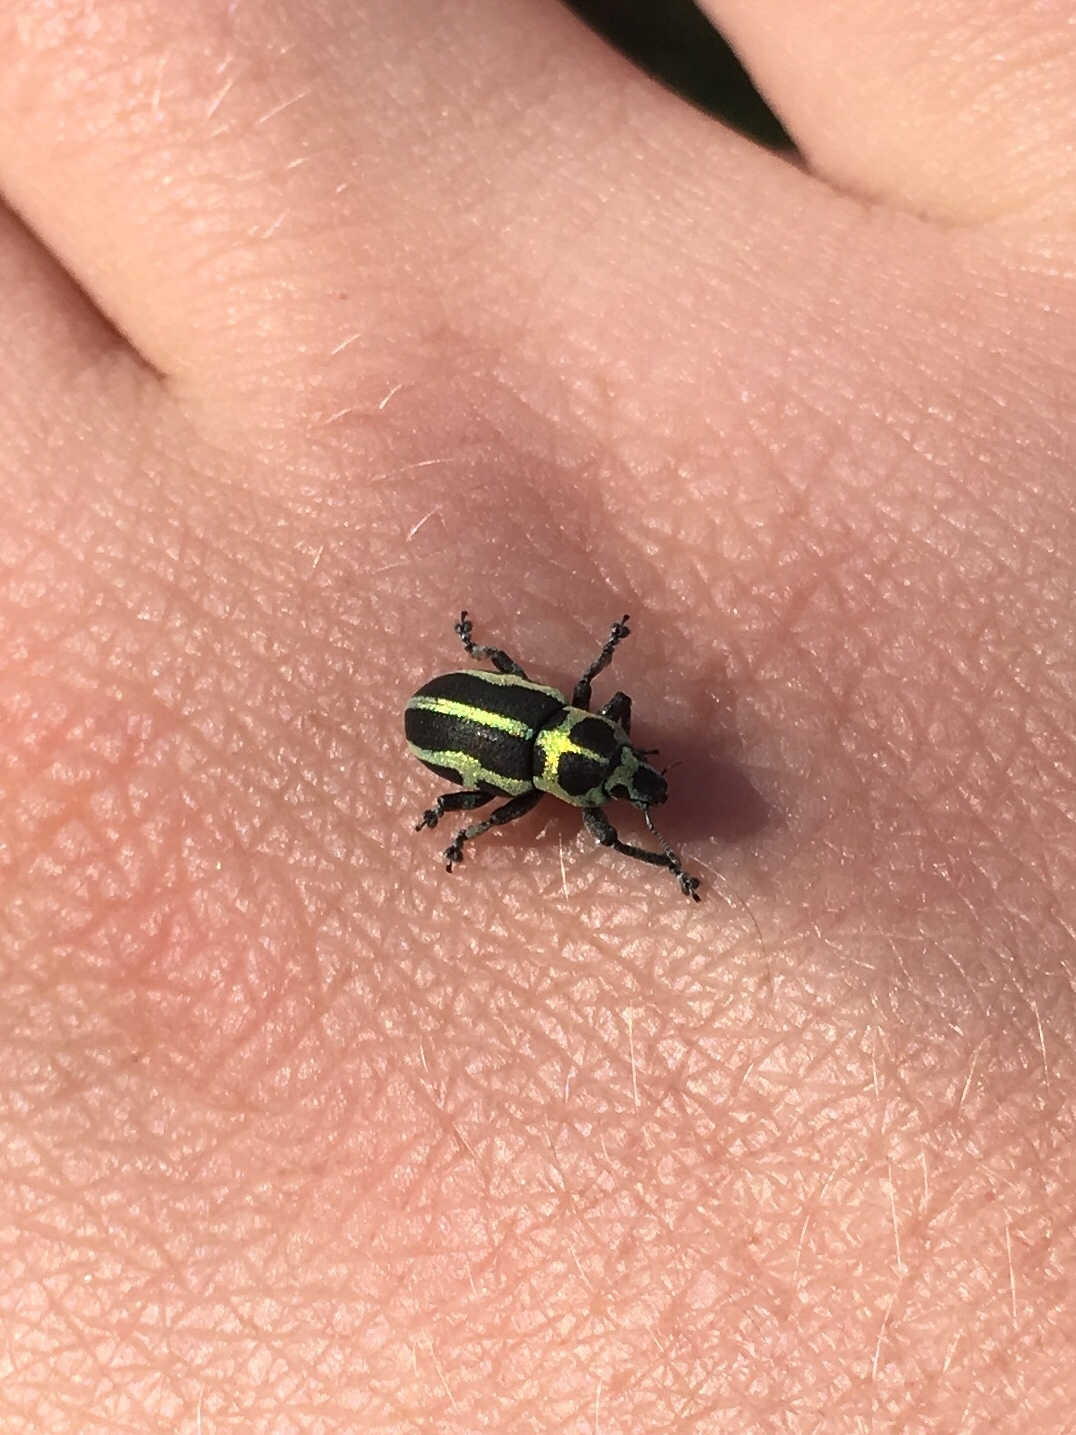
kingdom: Animalia
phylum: Arthropoda
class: Insecta
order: Coleoptera
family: Curculionidae
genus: Eudiagogus
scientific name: Eudiagogus pulcher
